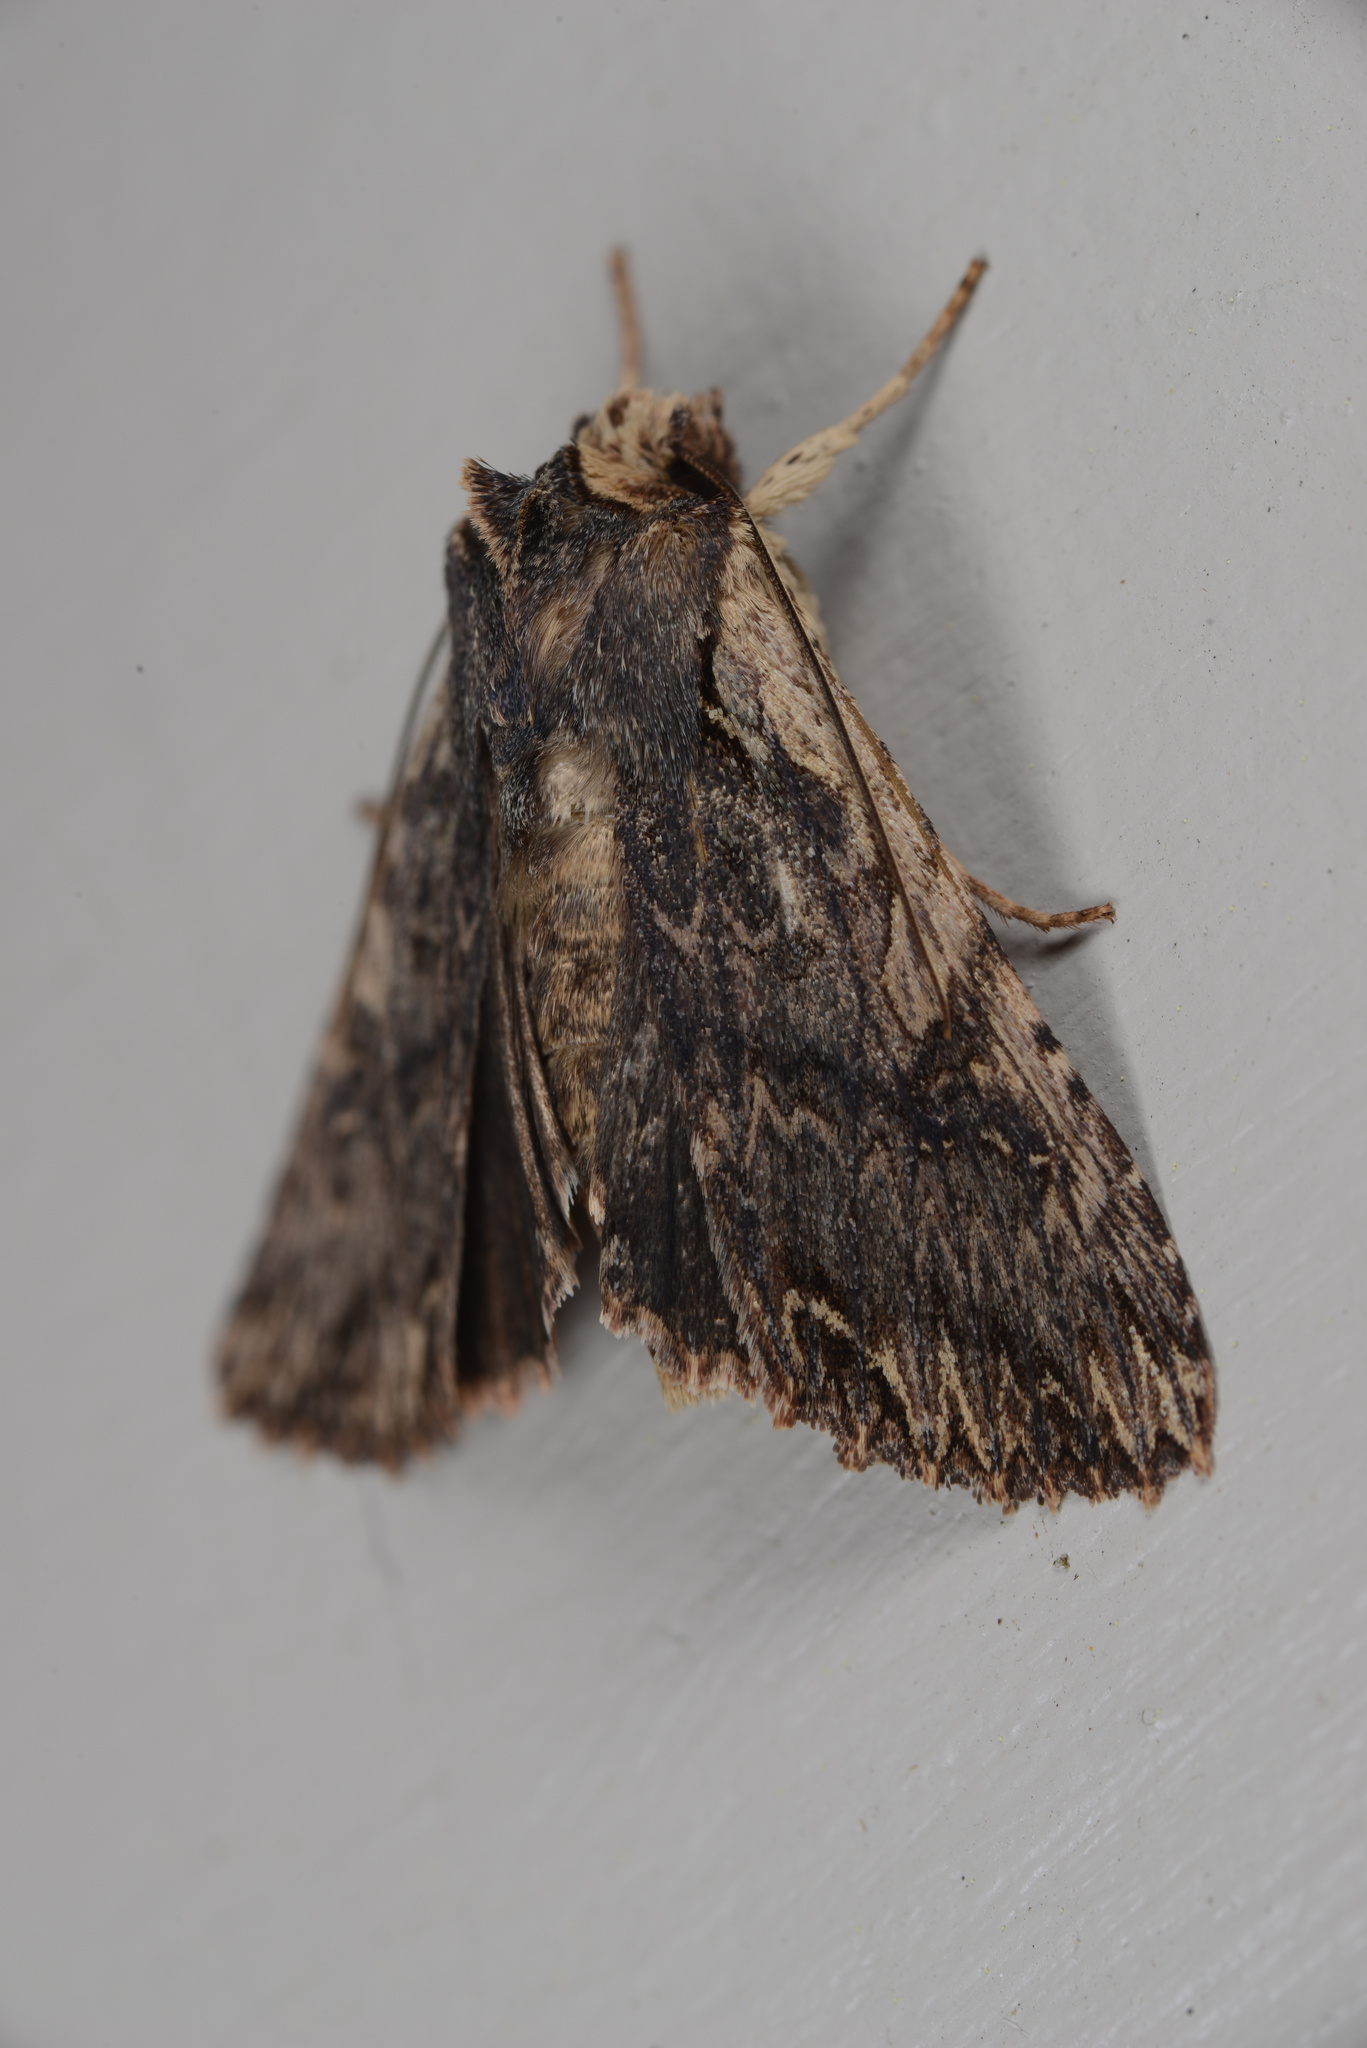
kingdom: Animalia
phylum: Arthropoda
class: Insecta
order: Lepidoptera
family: Noctuidae
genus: Meterana
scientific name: Meterana alcyone
